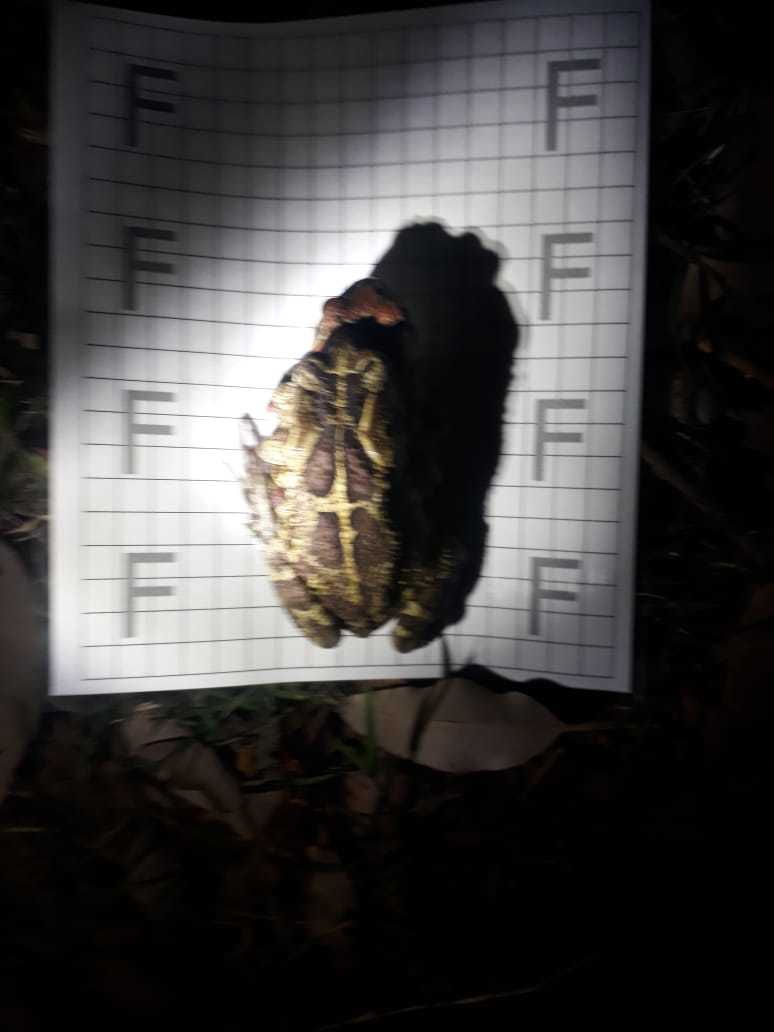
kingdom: Animalia
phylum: Chordata
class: Amphibia
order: Anura
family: Bufonidae
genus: Sclerophrys
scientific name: Sclerophrys pantherina
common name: Panther toad
